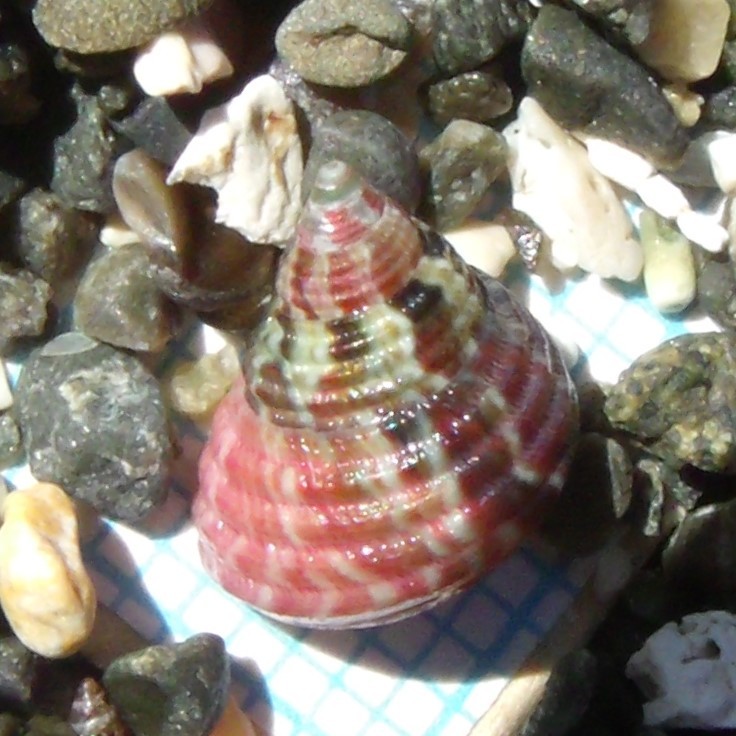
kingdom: Animalia
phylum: Mollusca
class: Gastropoda
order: Trochida
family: Trochidae
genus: Micrelenchus
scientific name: Micrelenchus purpureus
